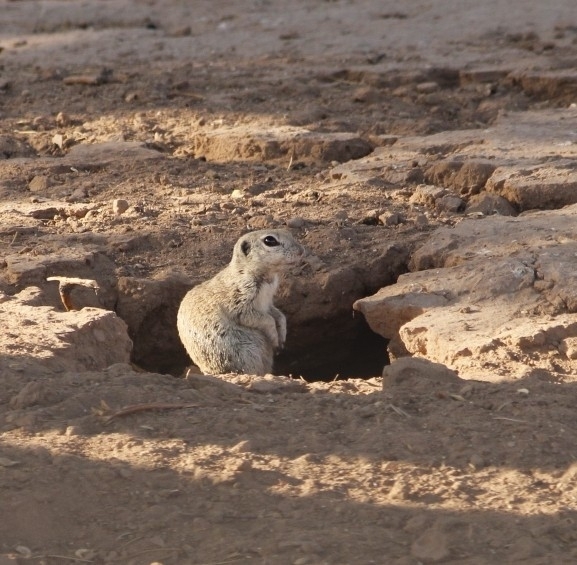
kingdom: Animalia
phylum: Chordata
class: Mammalia
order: Rodentia
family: Sciuridae
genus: Xerospermophilus
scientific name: Xerospermophilus tereticaudus
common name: Round-tailed ground squirrel
